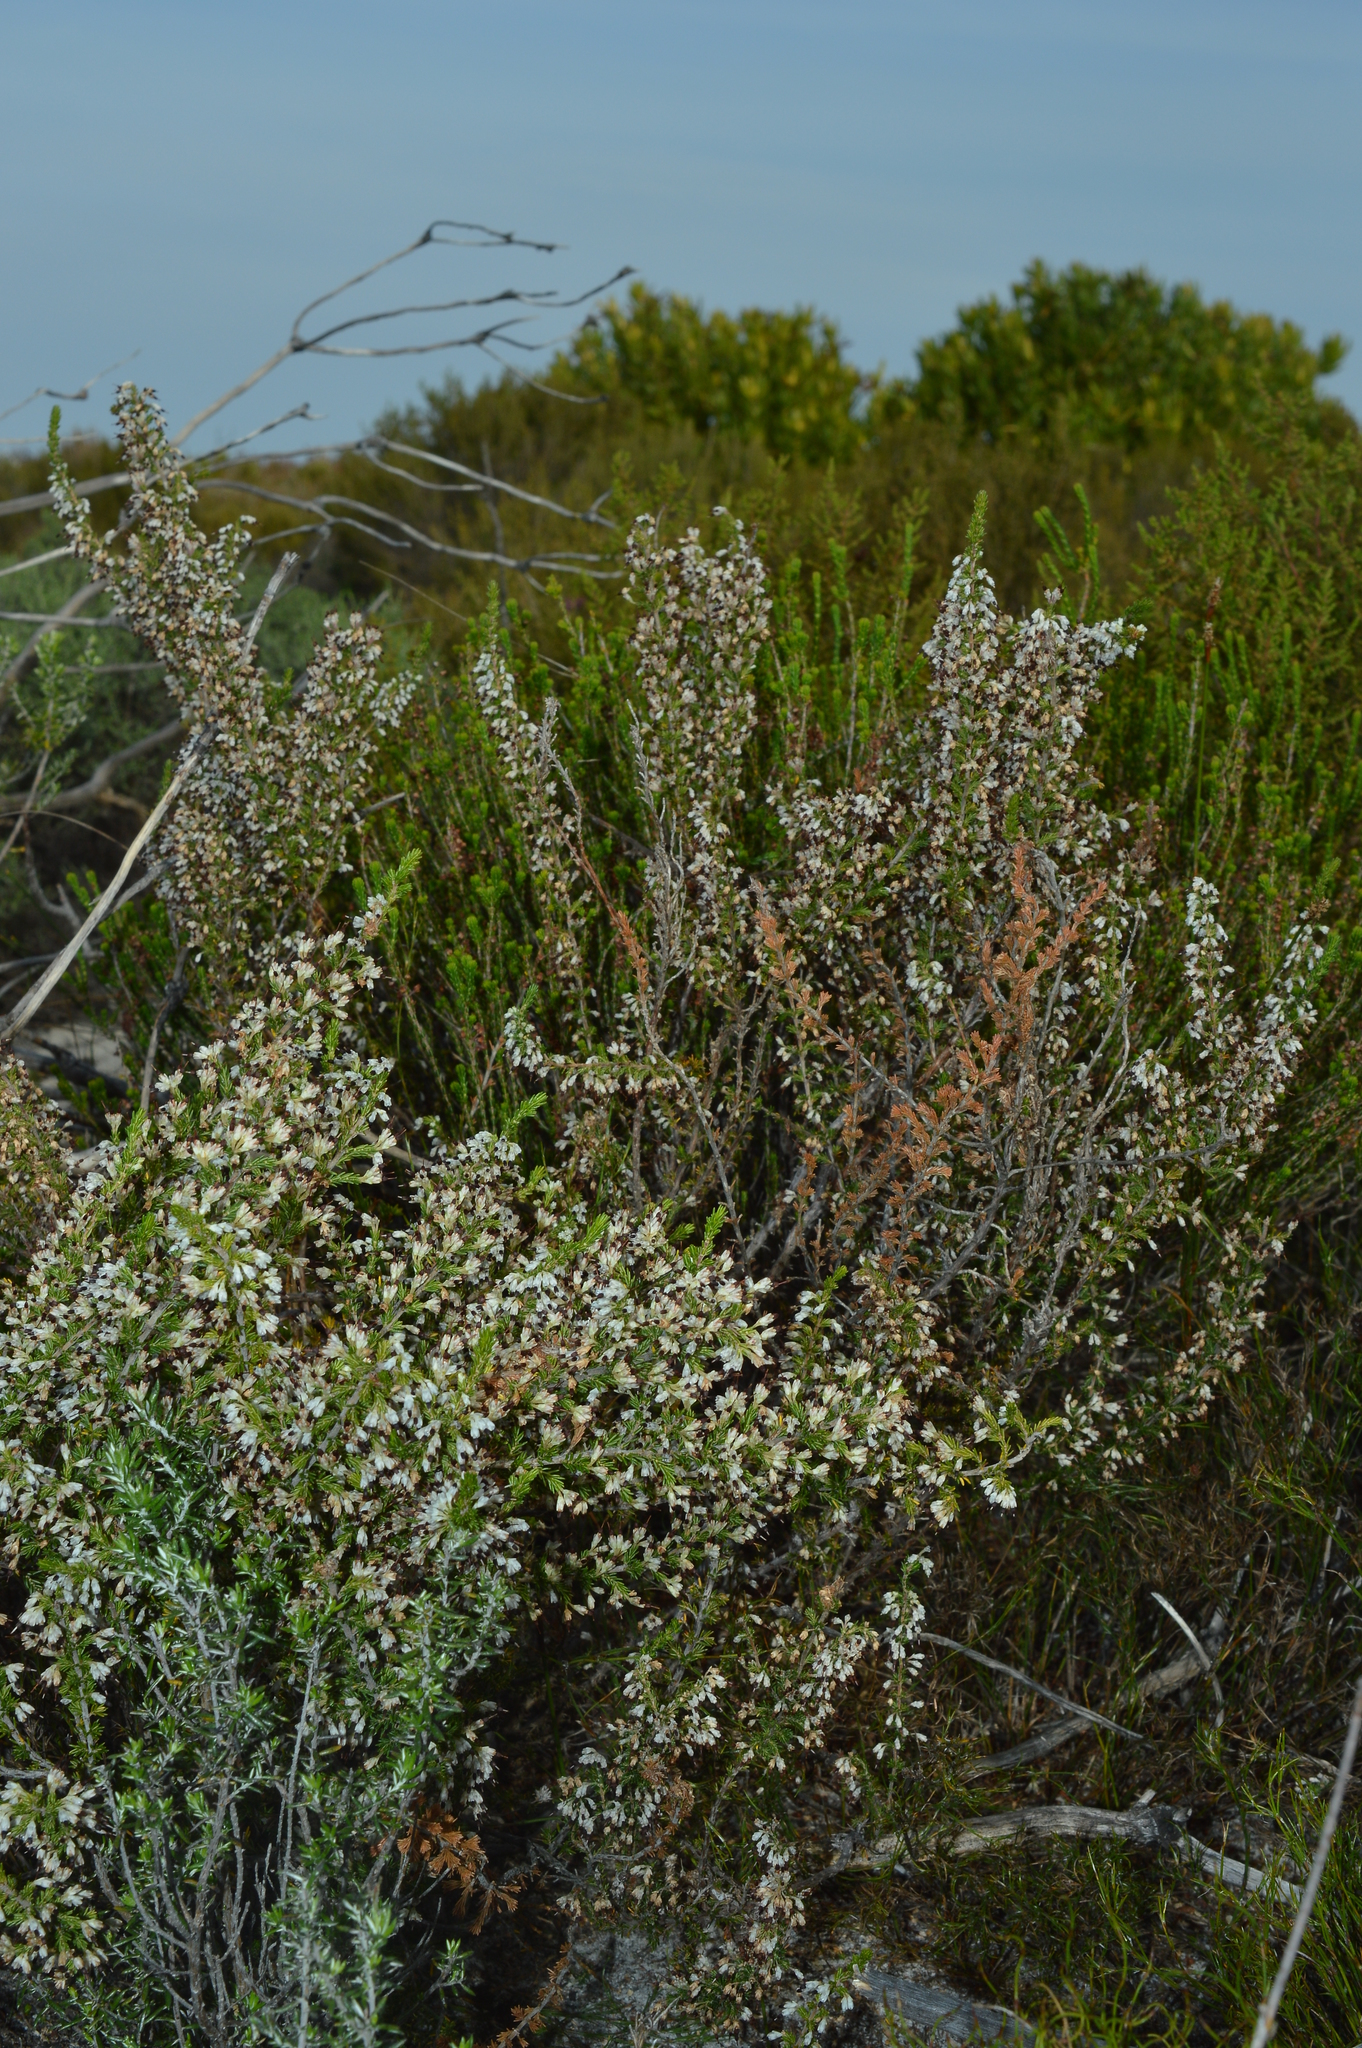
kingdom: Plantae
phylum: Tracheophyta
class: Magnoliopsida
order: Ericales
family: Ericaceae
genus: Erica
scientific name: Erica imbricata
